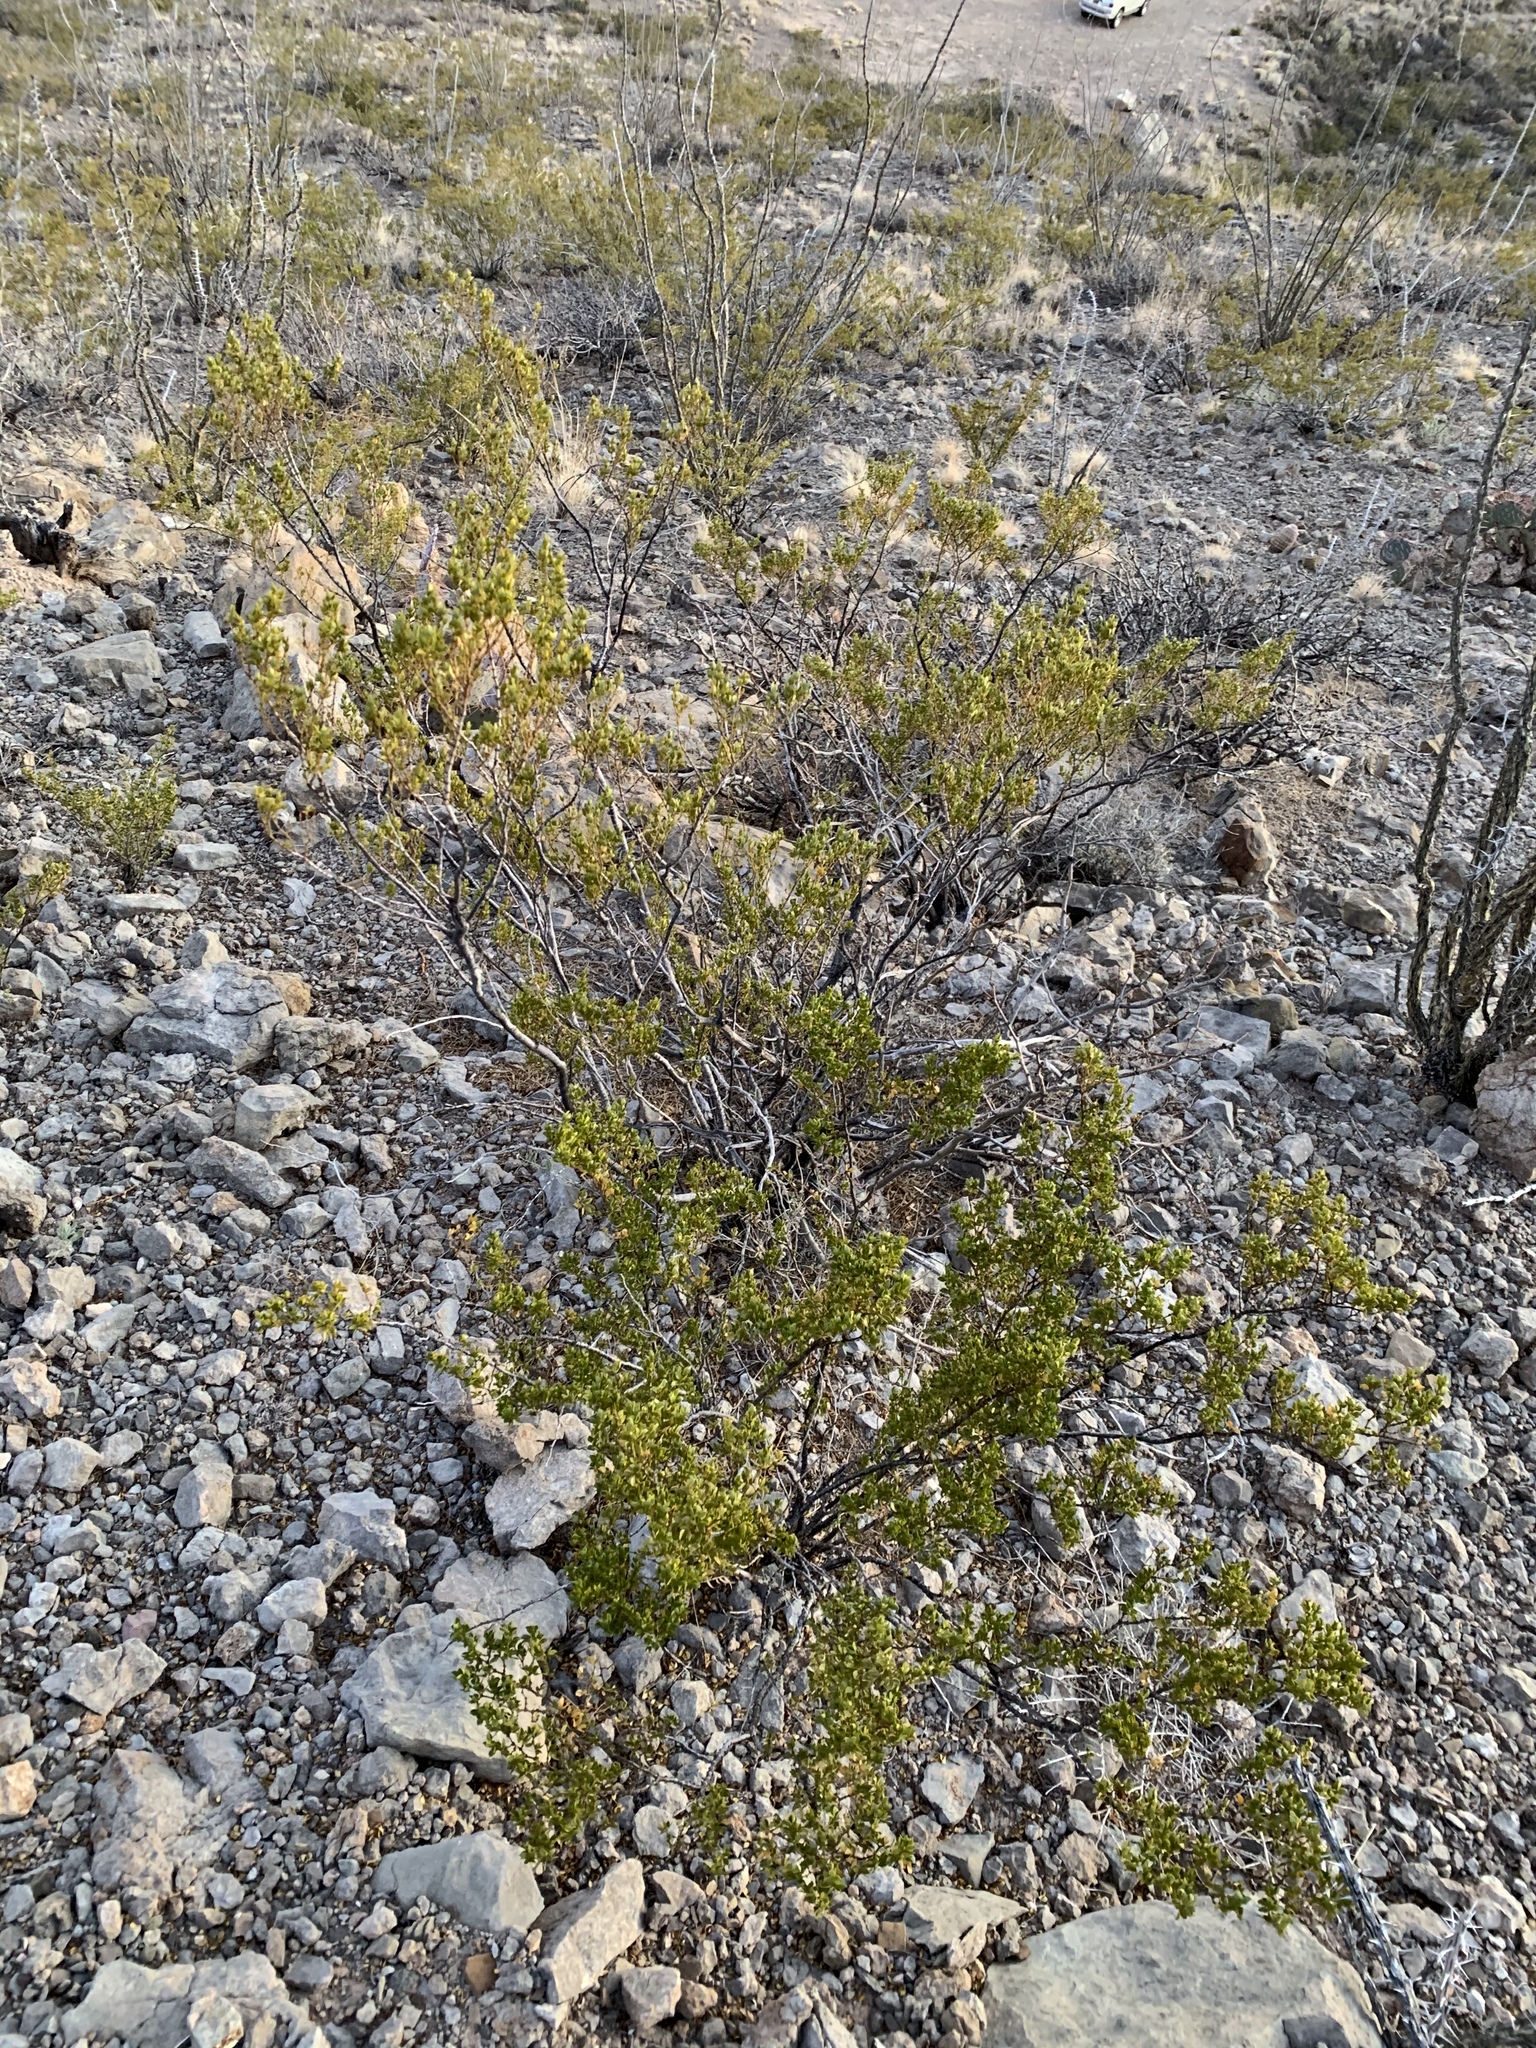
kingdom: Plantae
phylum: Tracheophyta
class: Magnoliopsida
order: Zygophyllales
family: Zygophyllaceae
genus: Larrea
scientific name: Larrea tridentata
